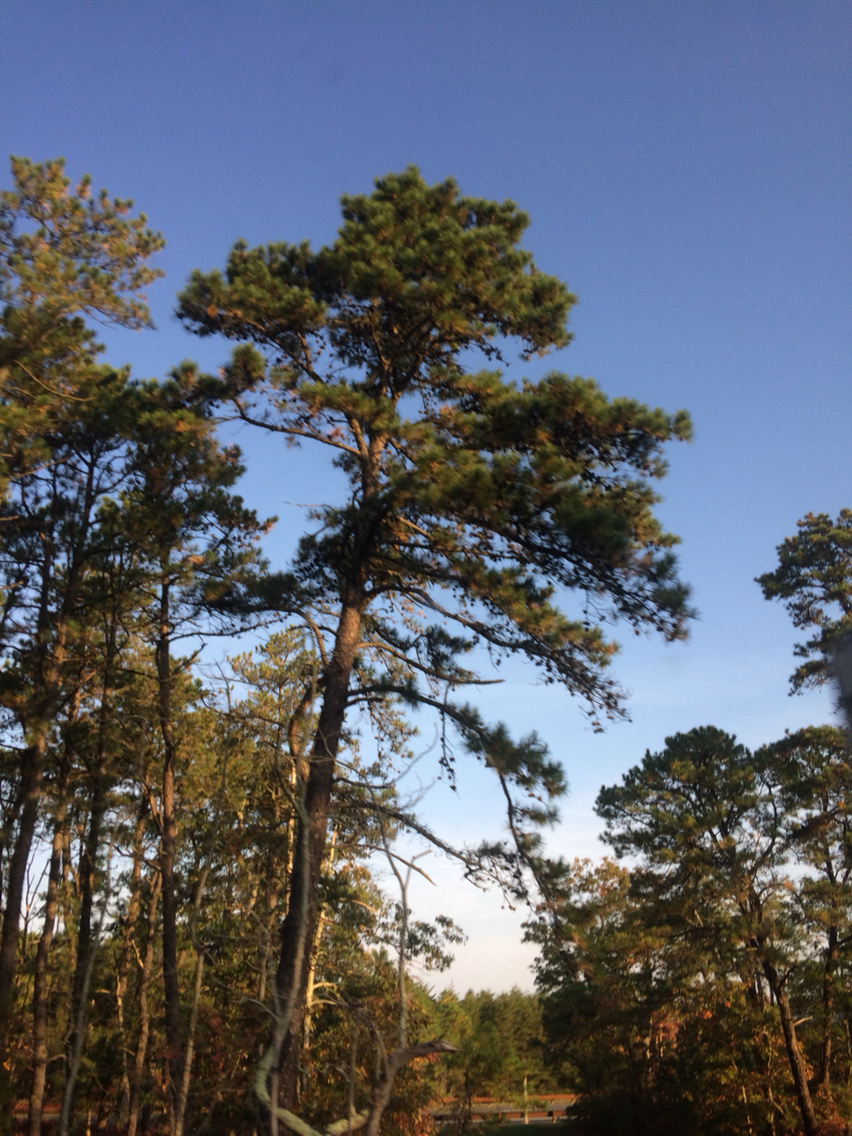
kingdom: Plantae
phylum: Tracheophyta
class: Pinopsida
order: Pinales
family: Pinaceae
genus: Pinus
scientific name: Pinus rigida
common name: Pitch pine
